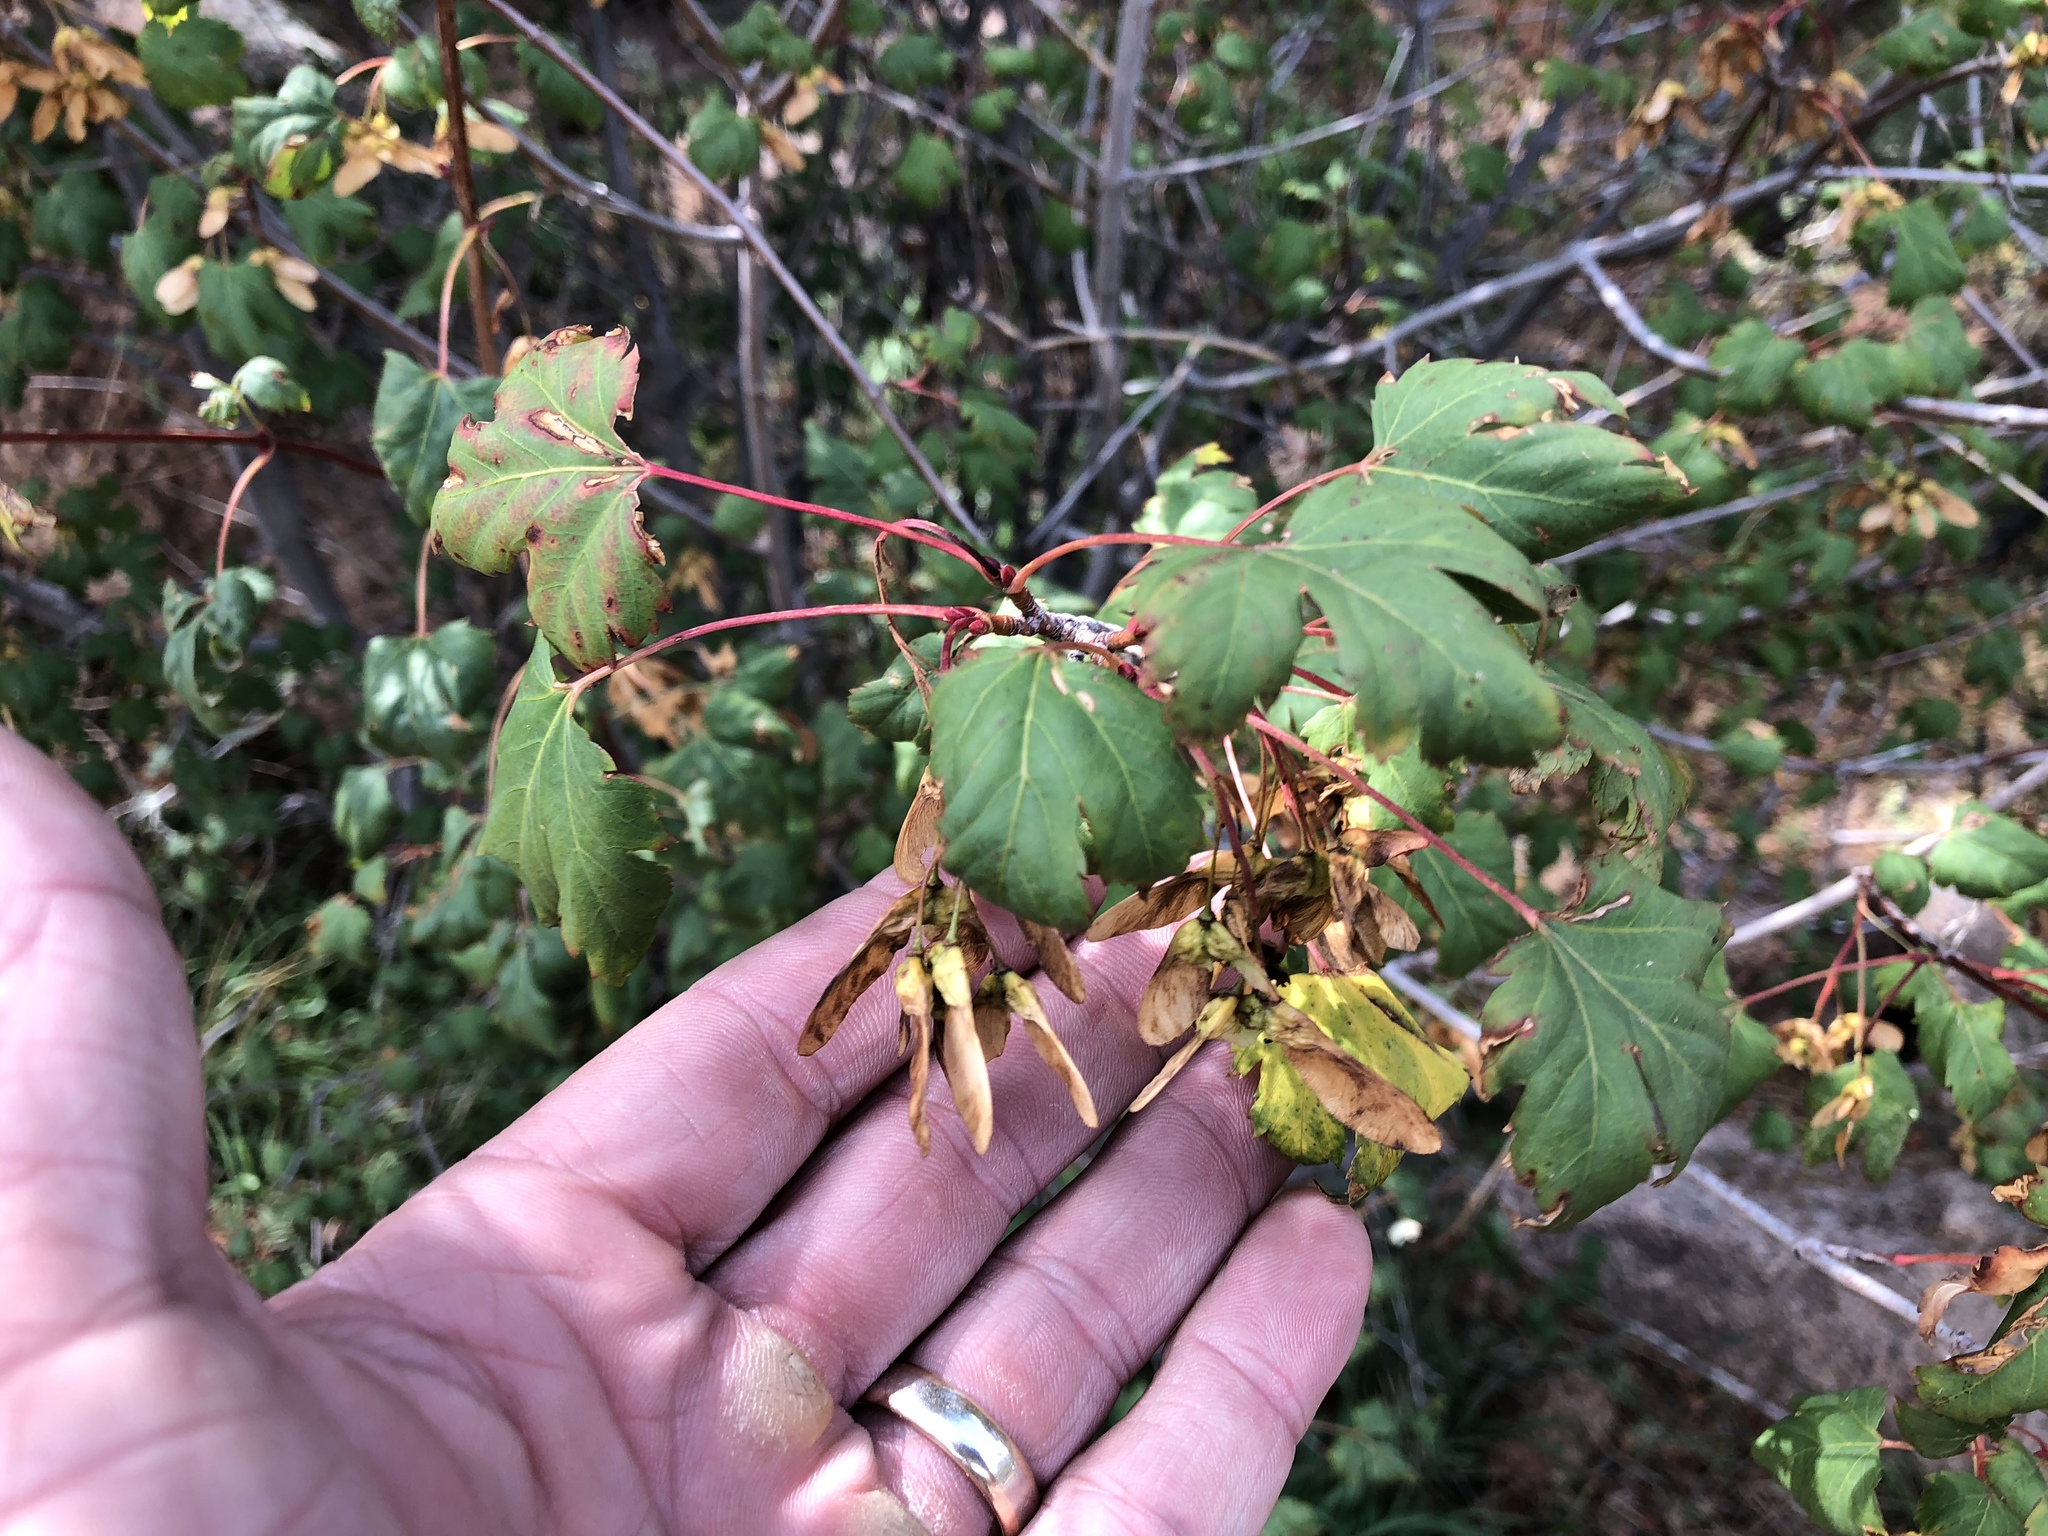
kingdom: Plantae
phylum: Tracheophyta
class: Magnoliopsida
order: Sapindales
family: Sapindaceae
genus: Acer
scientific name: Acer glabrum
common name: Rocky mountain maple
